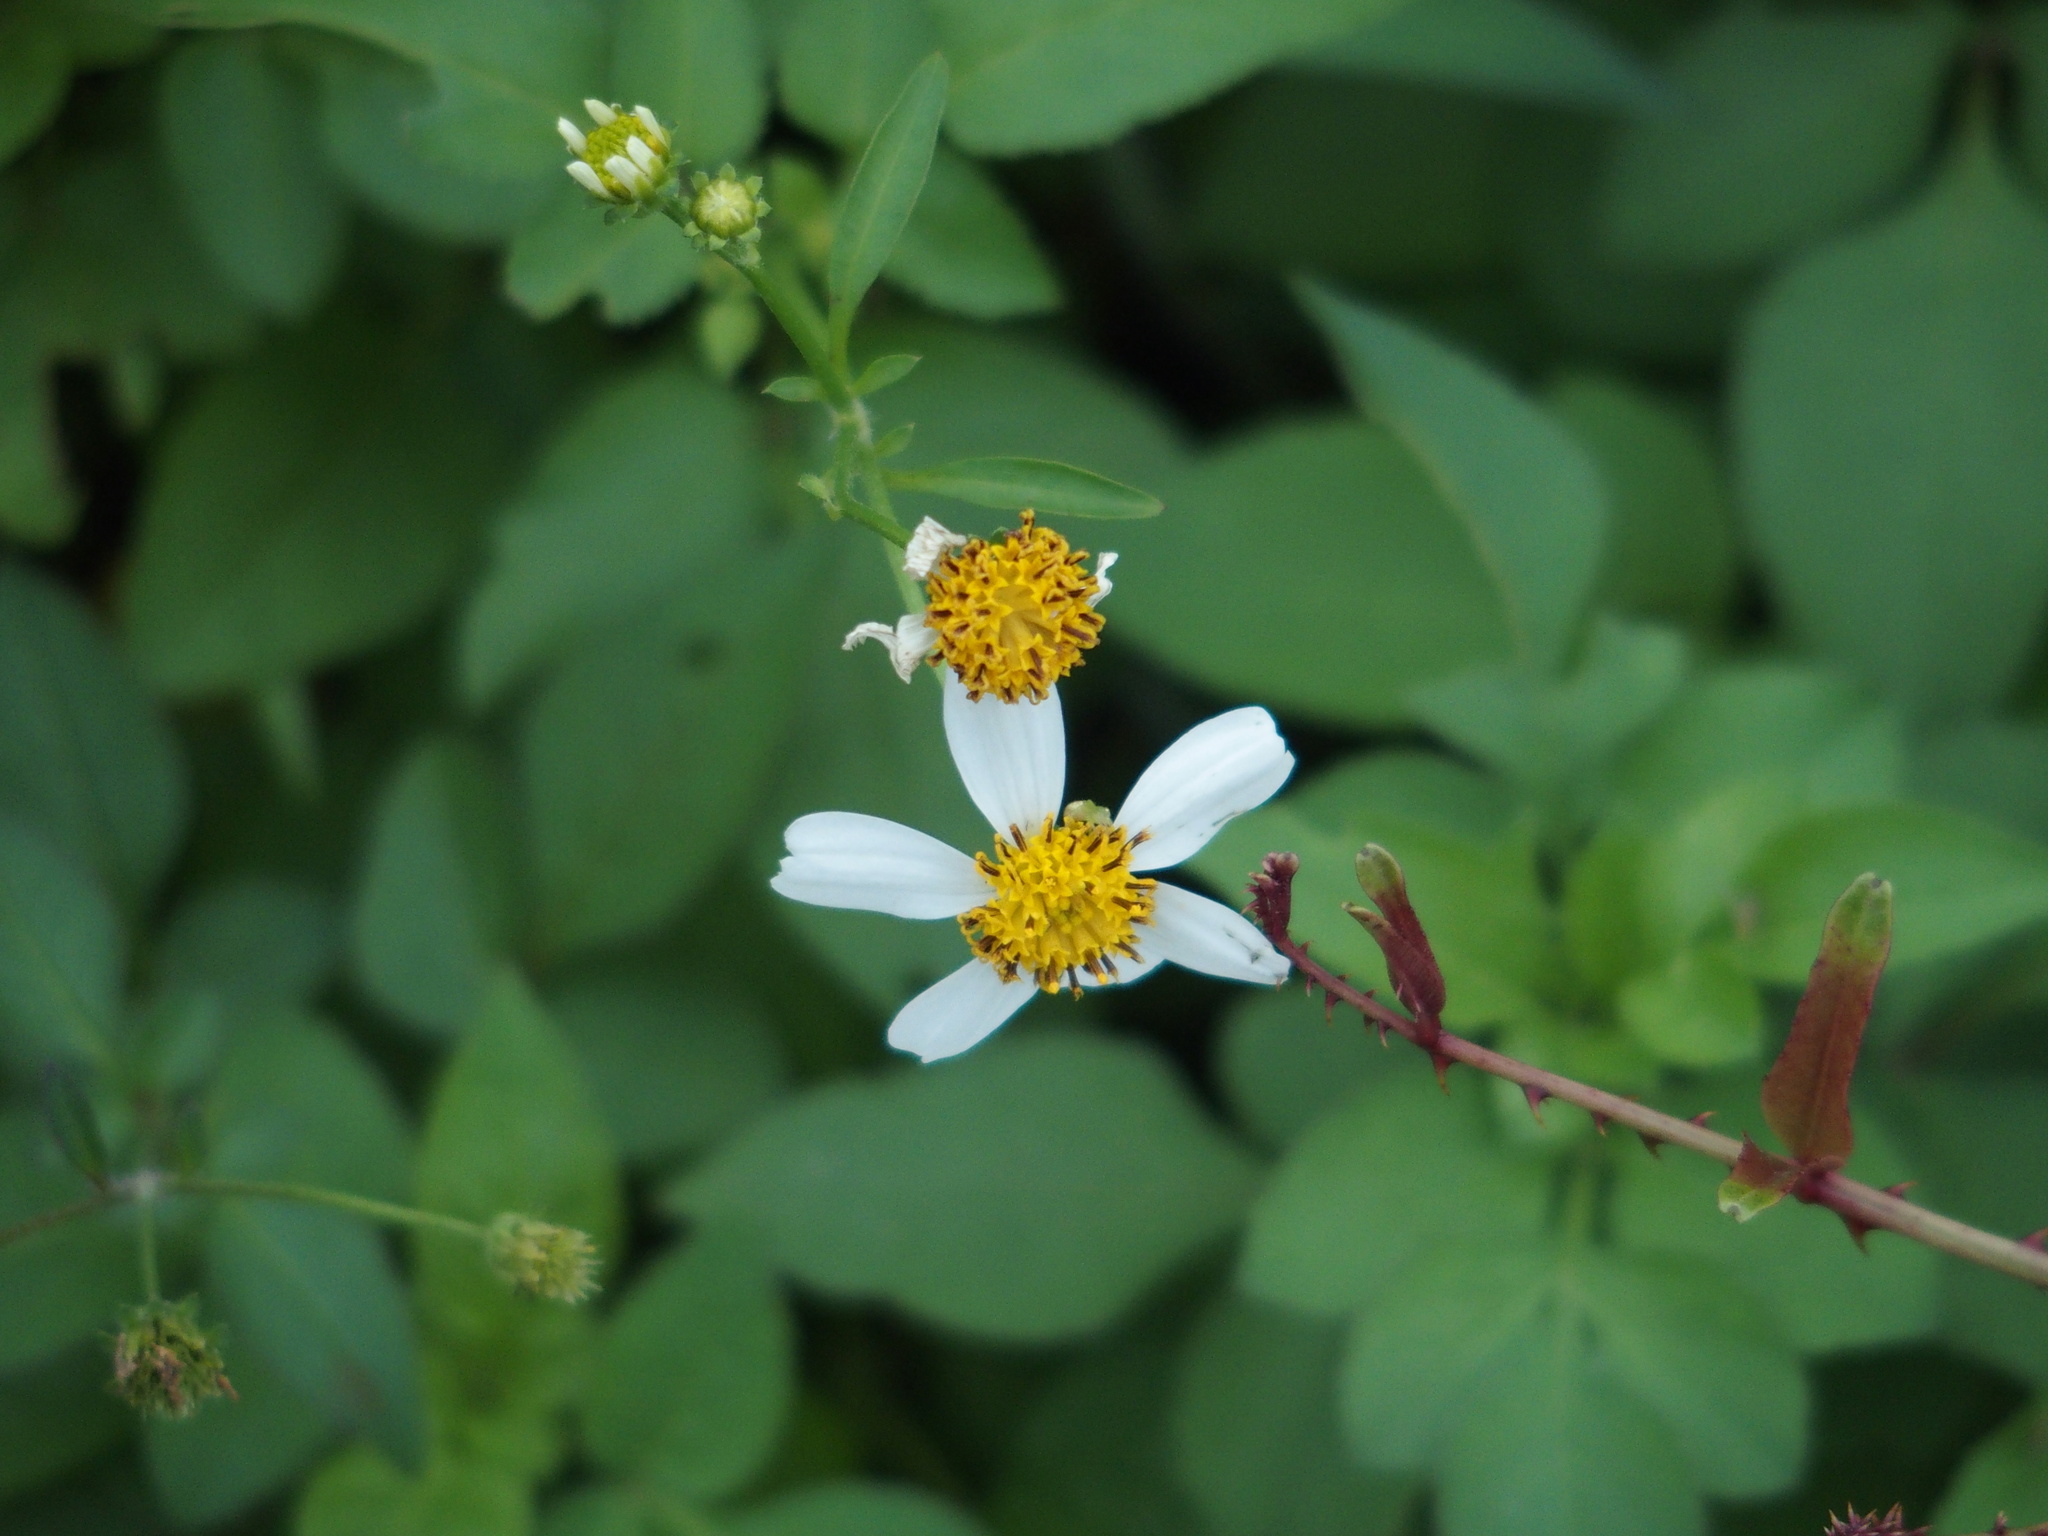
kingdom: Plantae
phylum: Tracheophyta
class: Magnoliopsida
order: Asterales
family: Asteraceae
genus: Bidens
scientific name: Bidens alba
